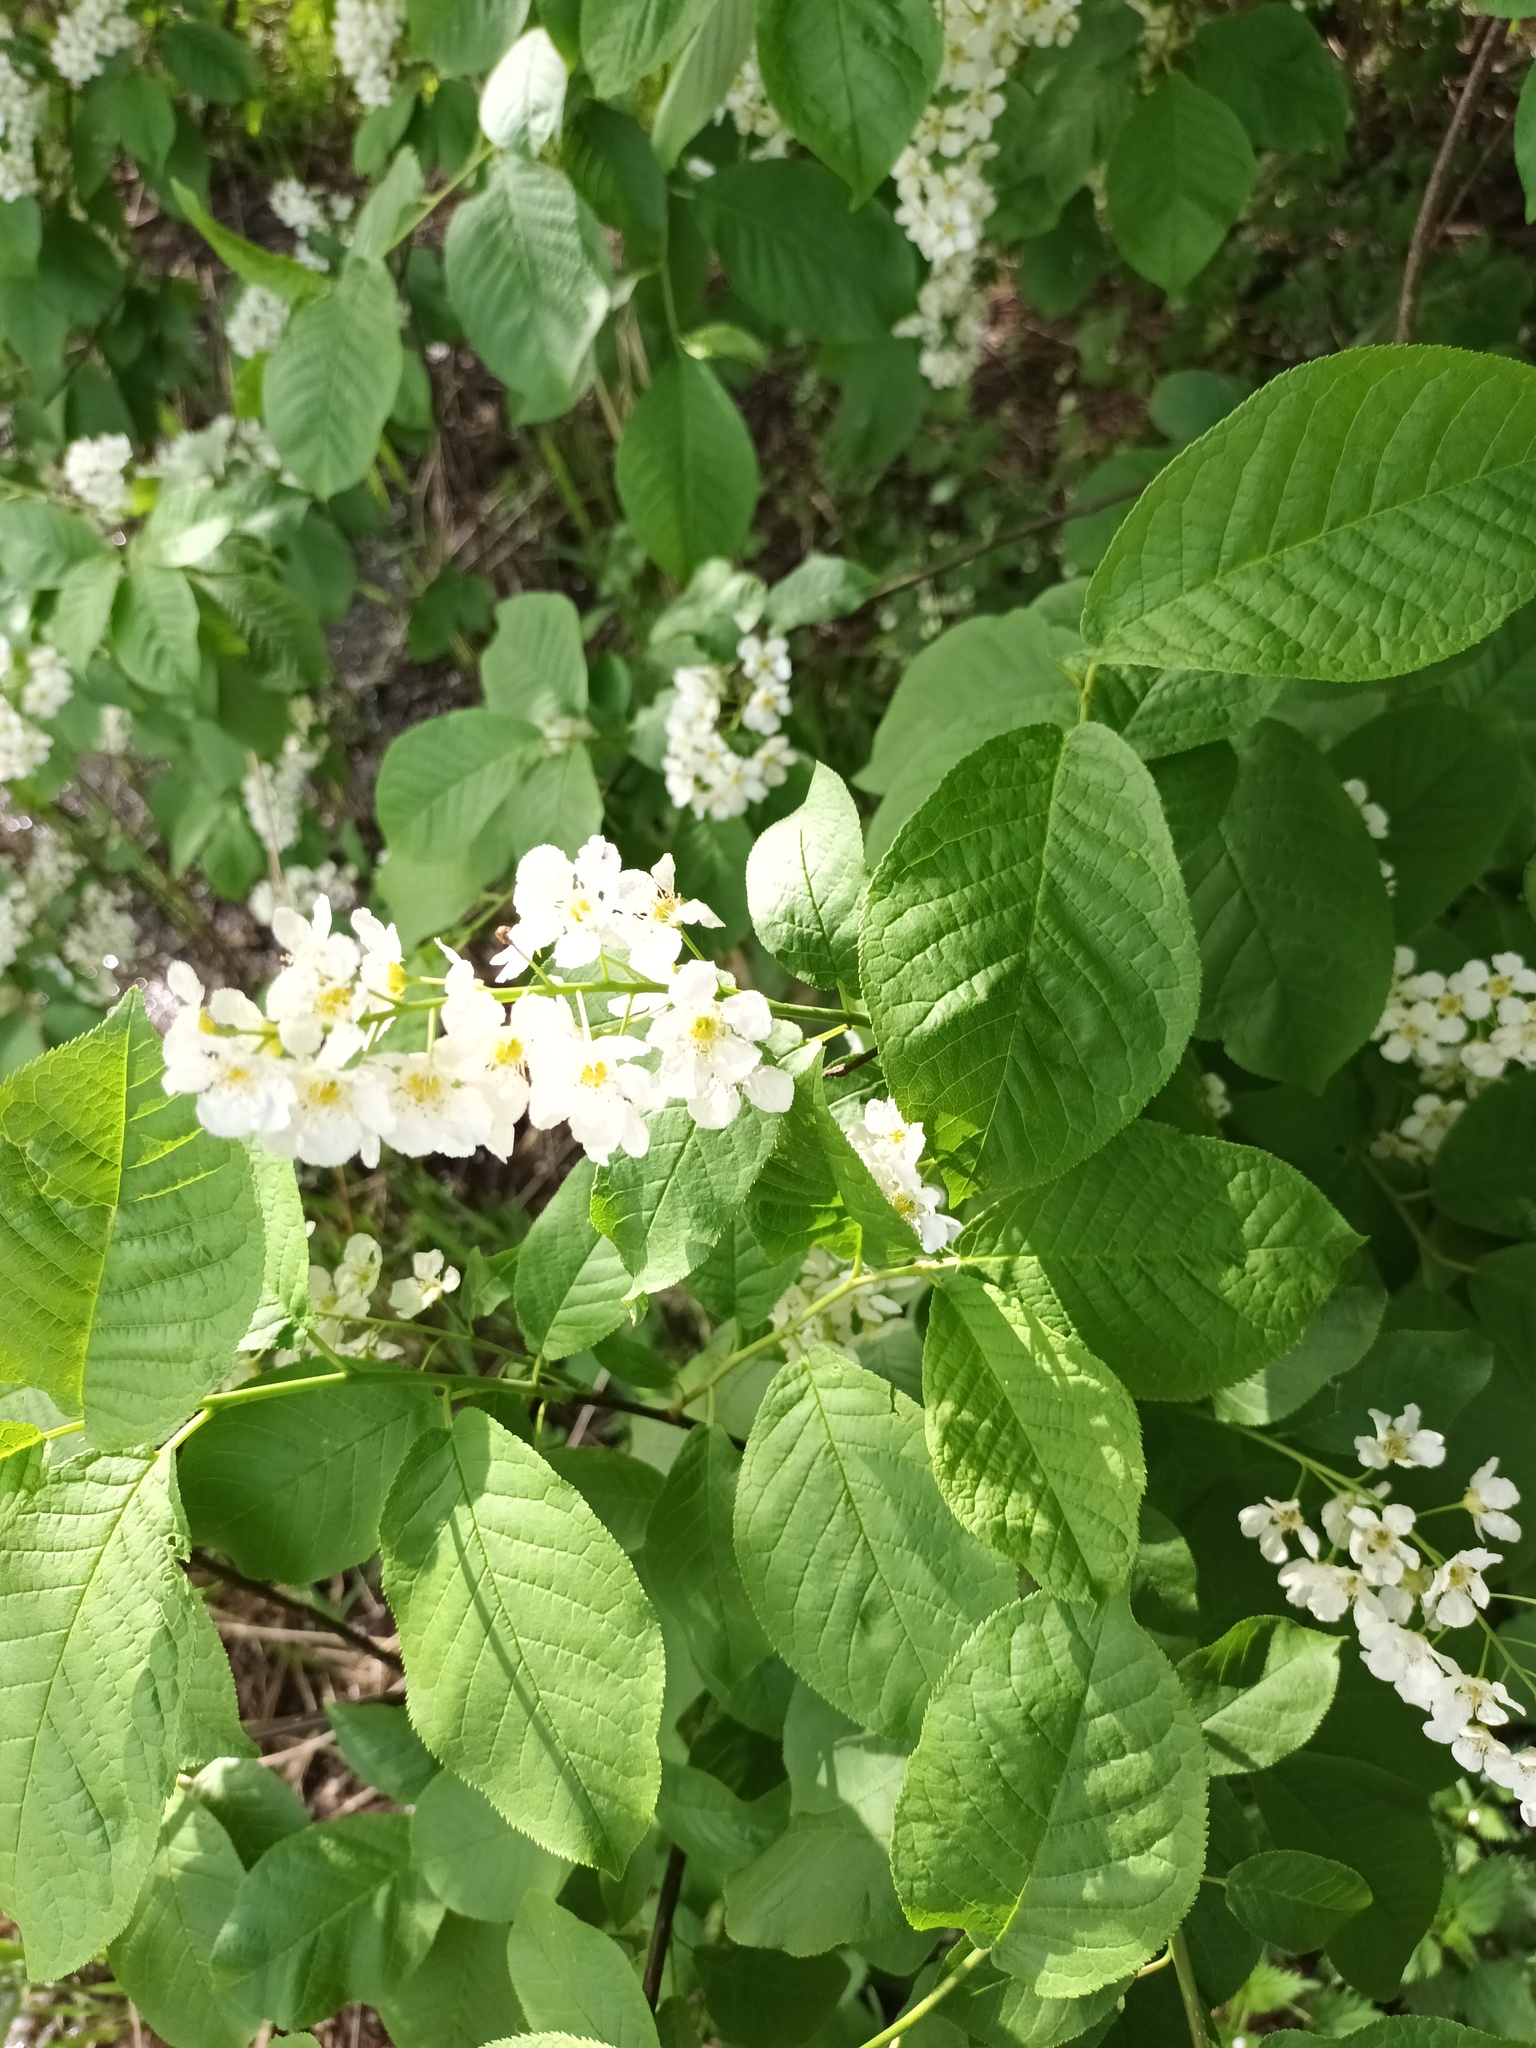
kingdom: Plantae
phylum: Tracheophyta
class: Magnoliopsida
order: Rosales
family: Rosaceae
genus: Prunus
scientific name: Prunus padus
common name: Bird cherry
